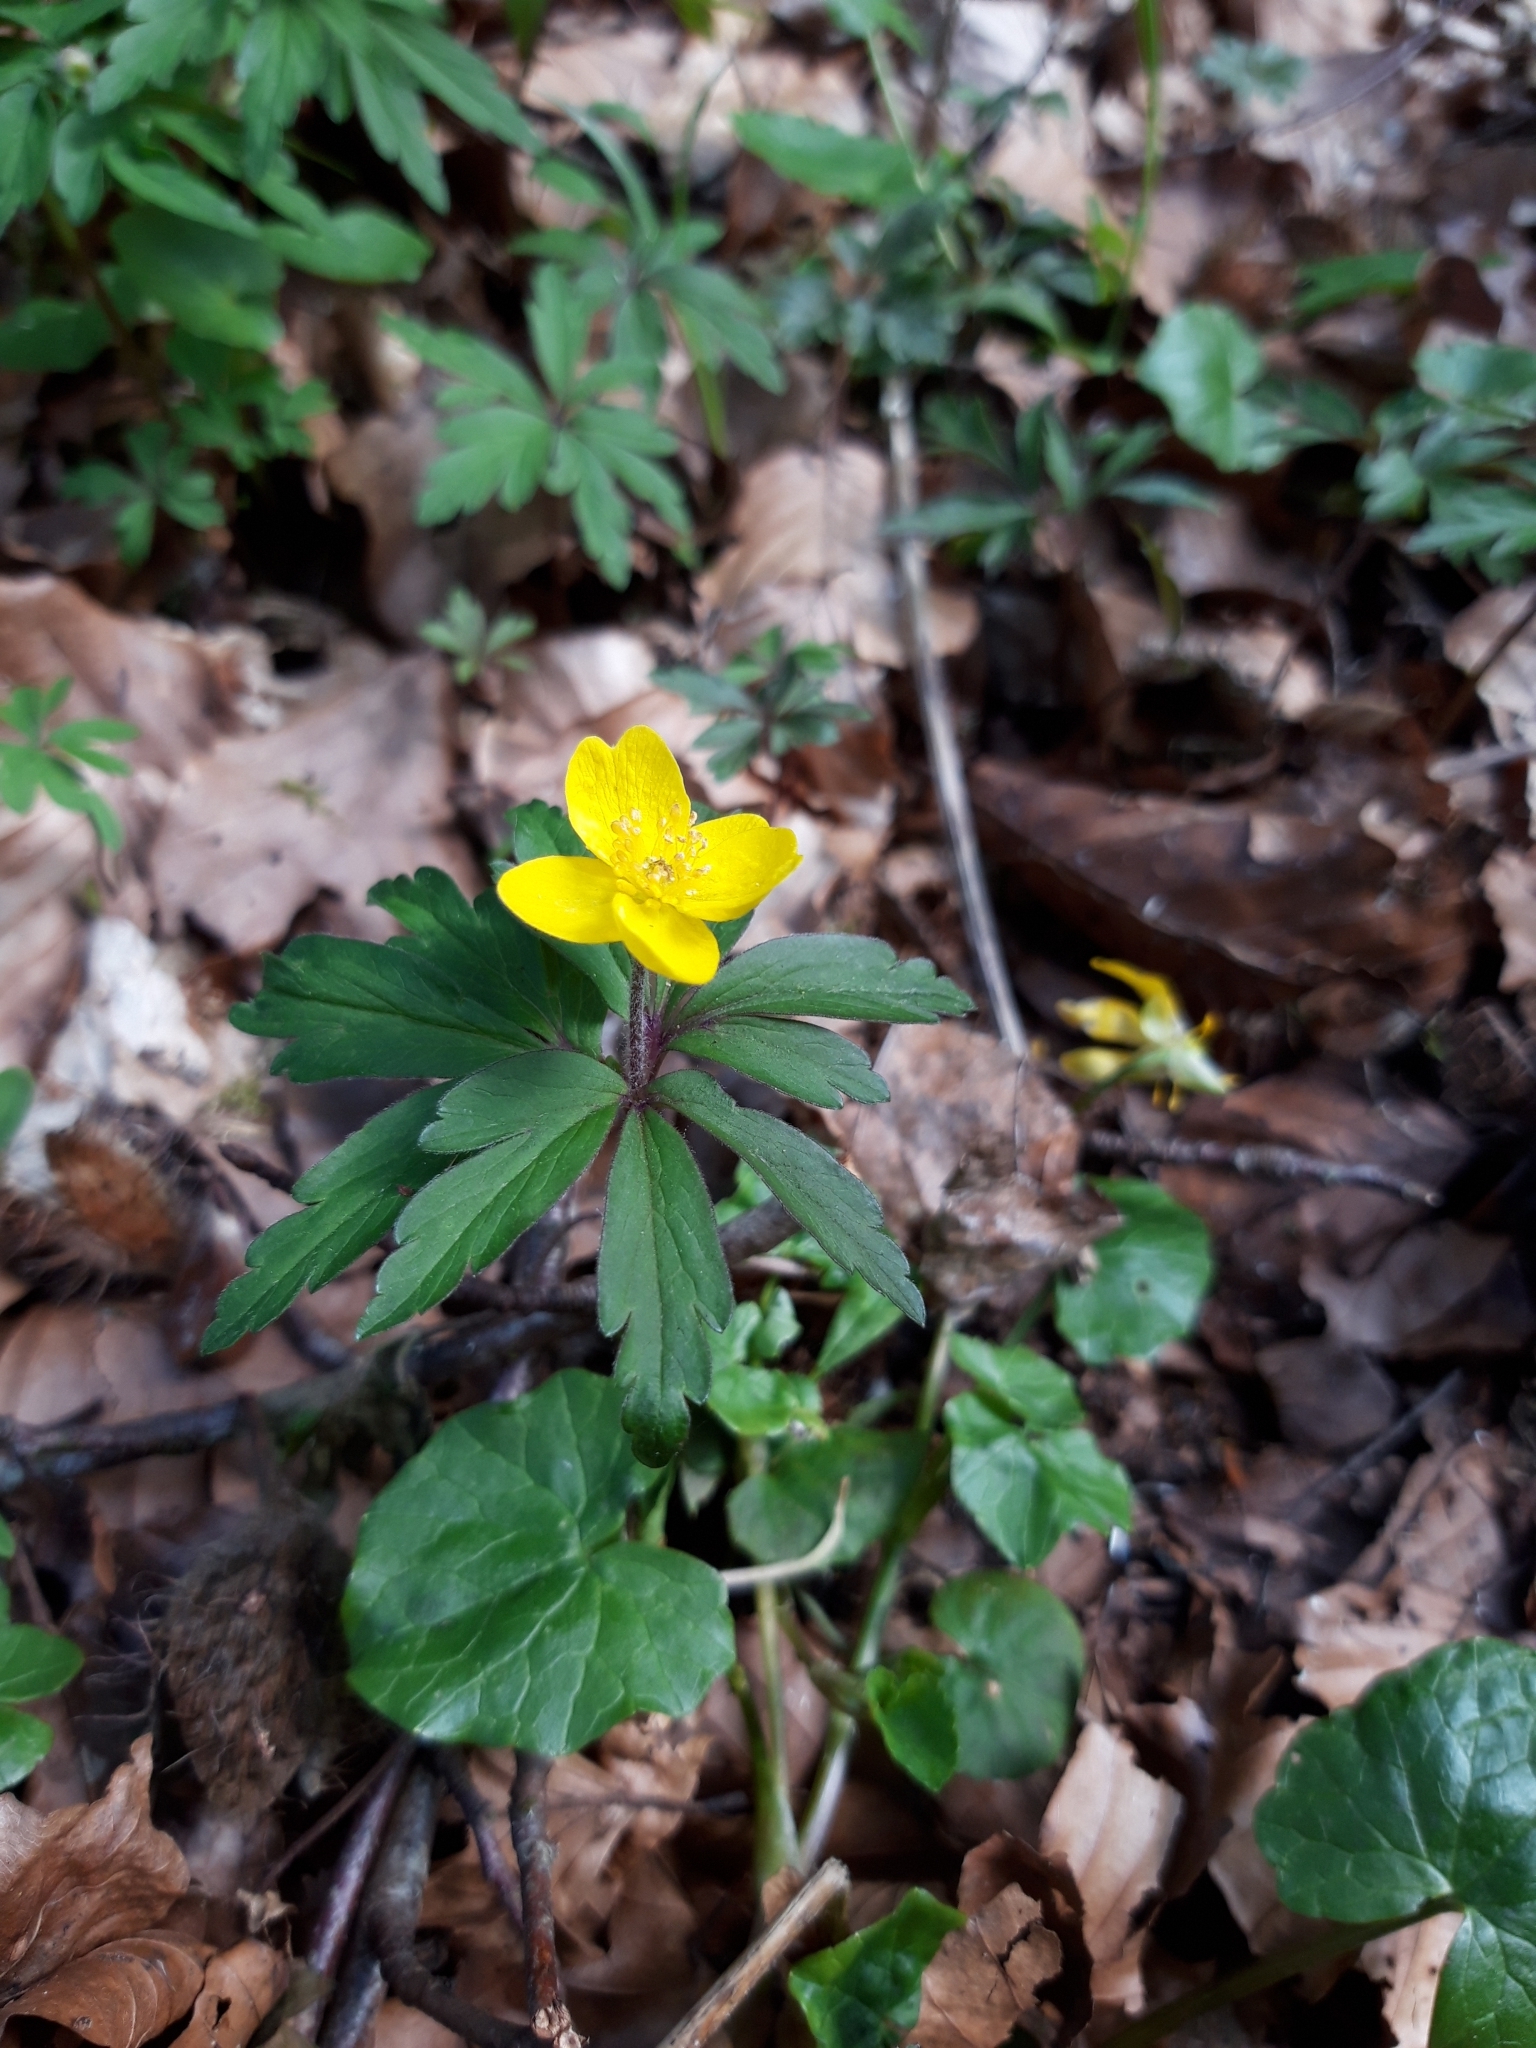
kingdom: Plantae
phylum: Tracheophyta
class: Magnoliopsida
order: Ranunculales
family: Ranunculaceae
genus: Anemone
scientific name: Anemone ranunculoides
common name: Yellow anemone
